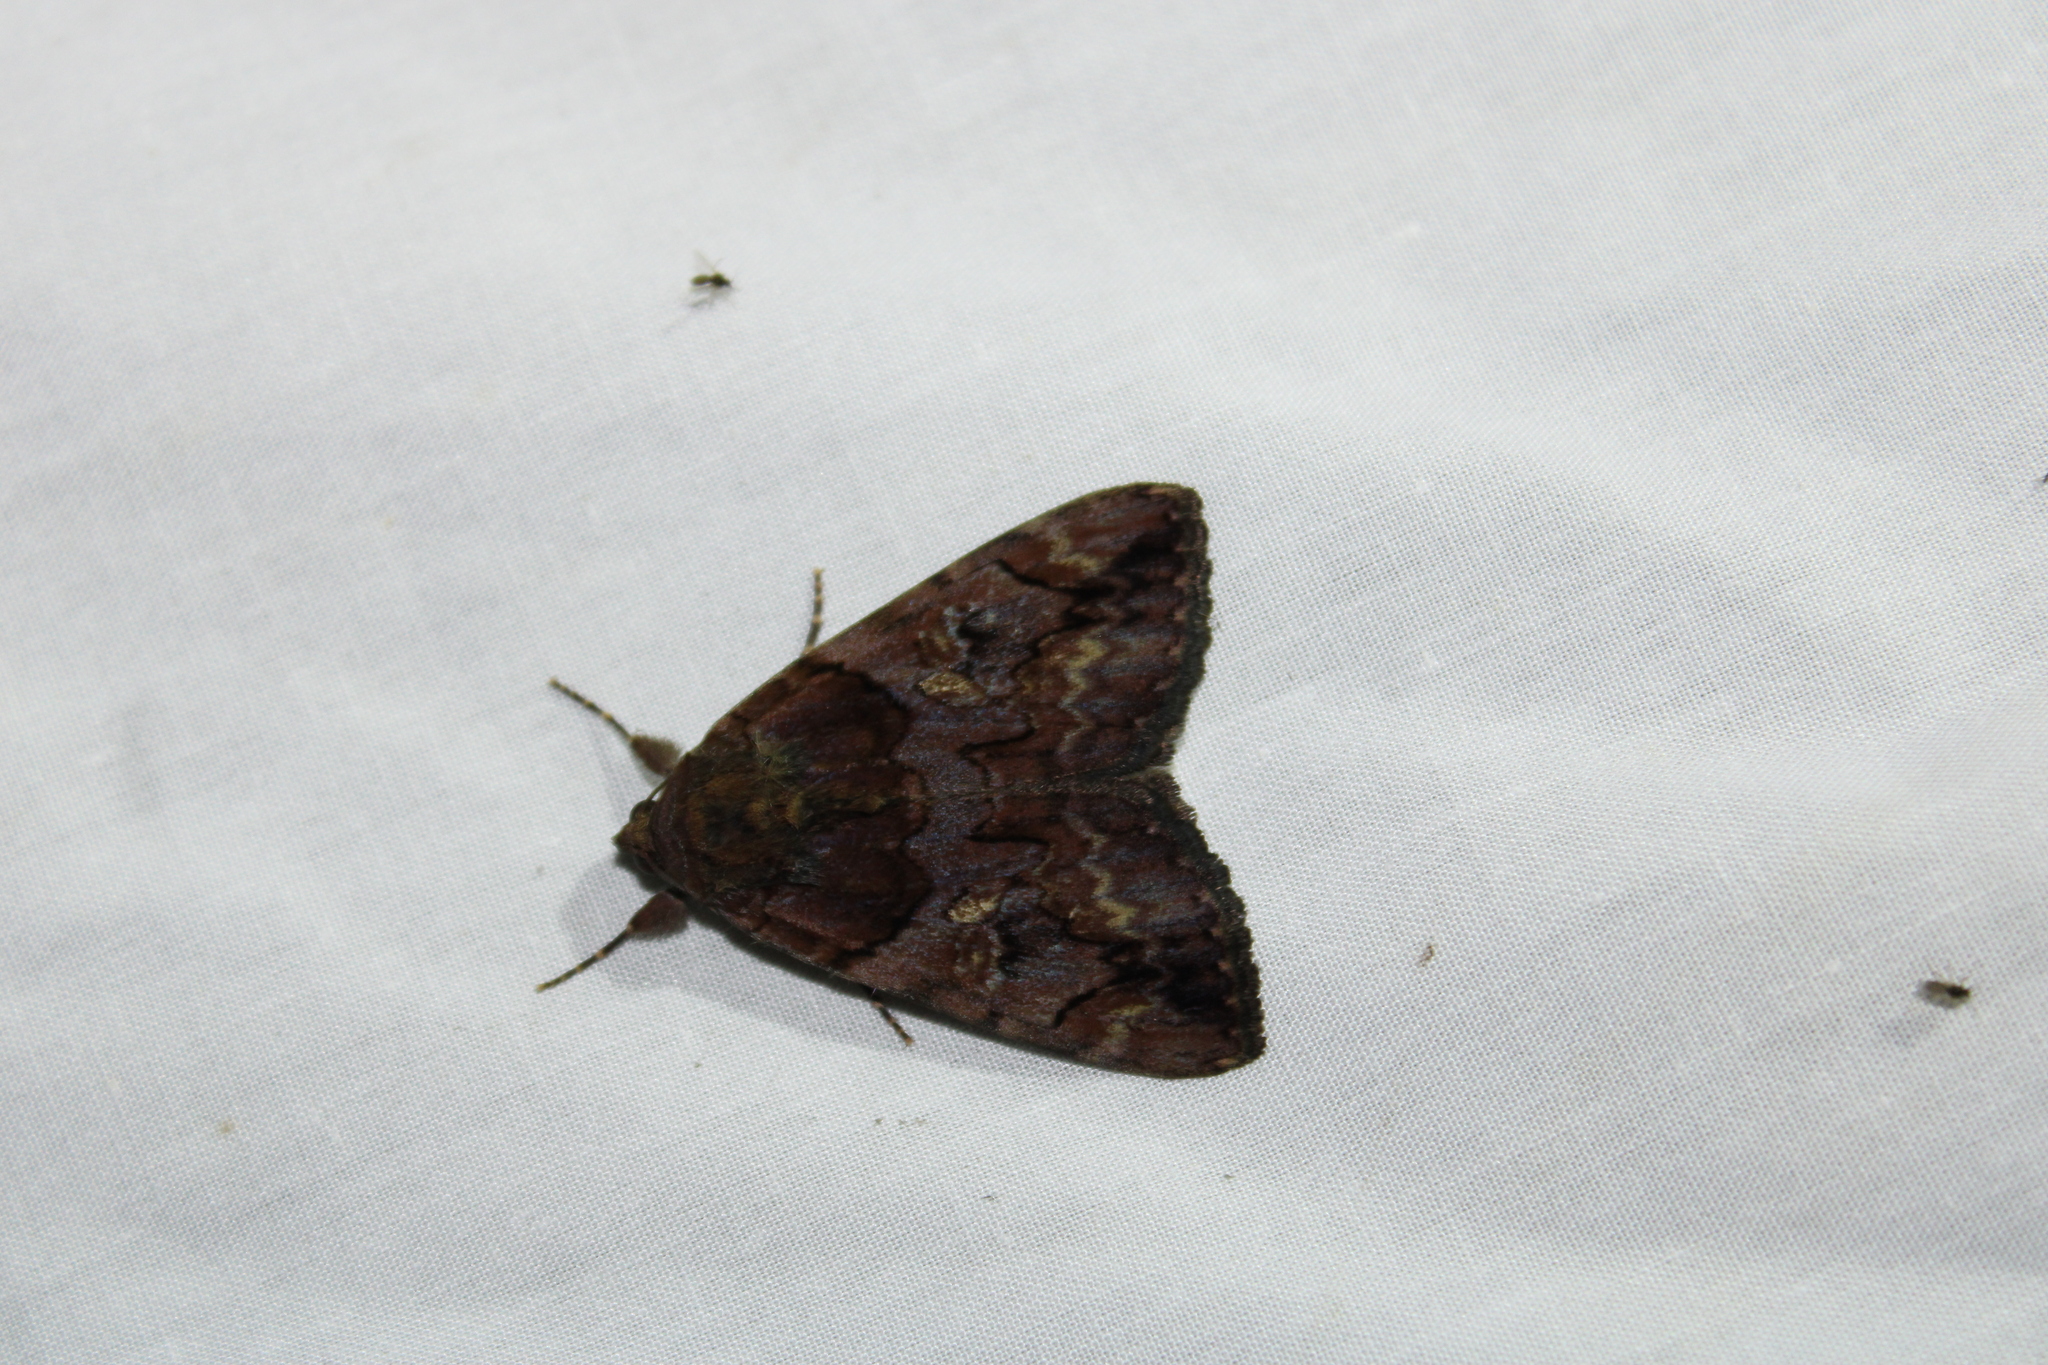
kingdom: Animalia
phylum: Arthropoda
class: Insecta
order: Lepidoptera
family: Erebidae
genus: Catocala
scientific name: Catocala muliercula
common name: The little wife underwing
